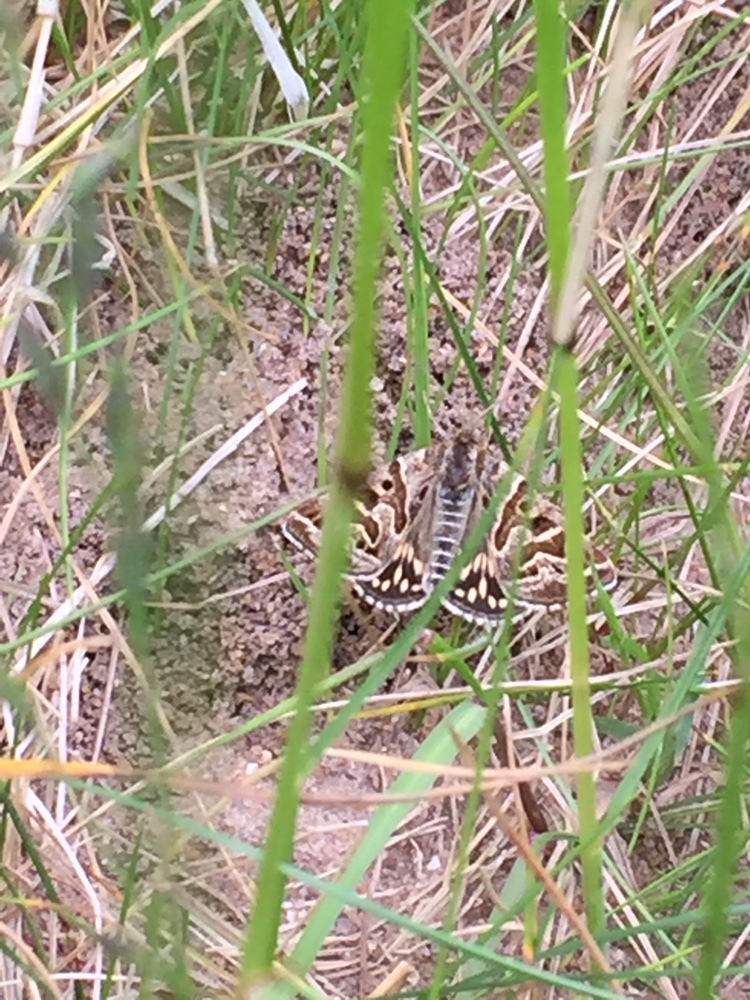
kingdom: Animalia
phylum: Arthropoda
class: Insecta
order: Lepidoptera
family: Erebidae
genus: Callistege
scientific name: Callistege mi
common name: Mother shipton
